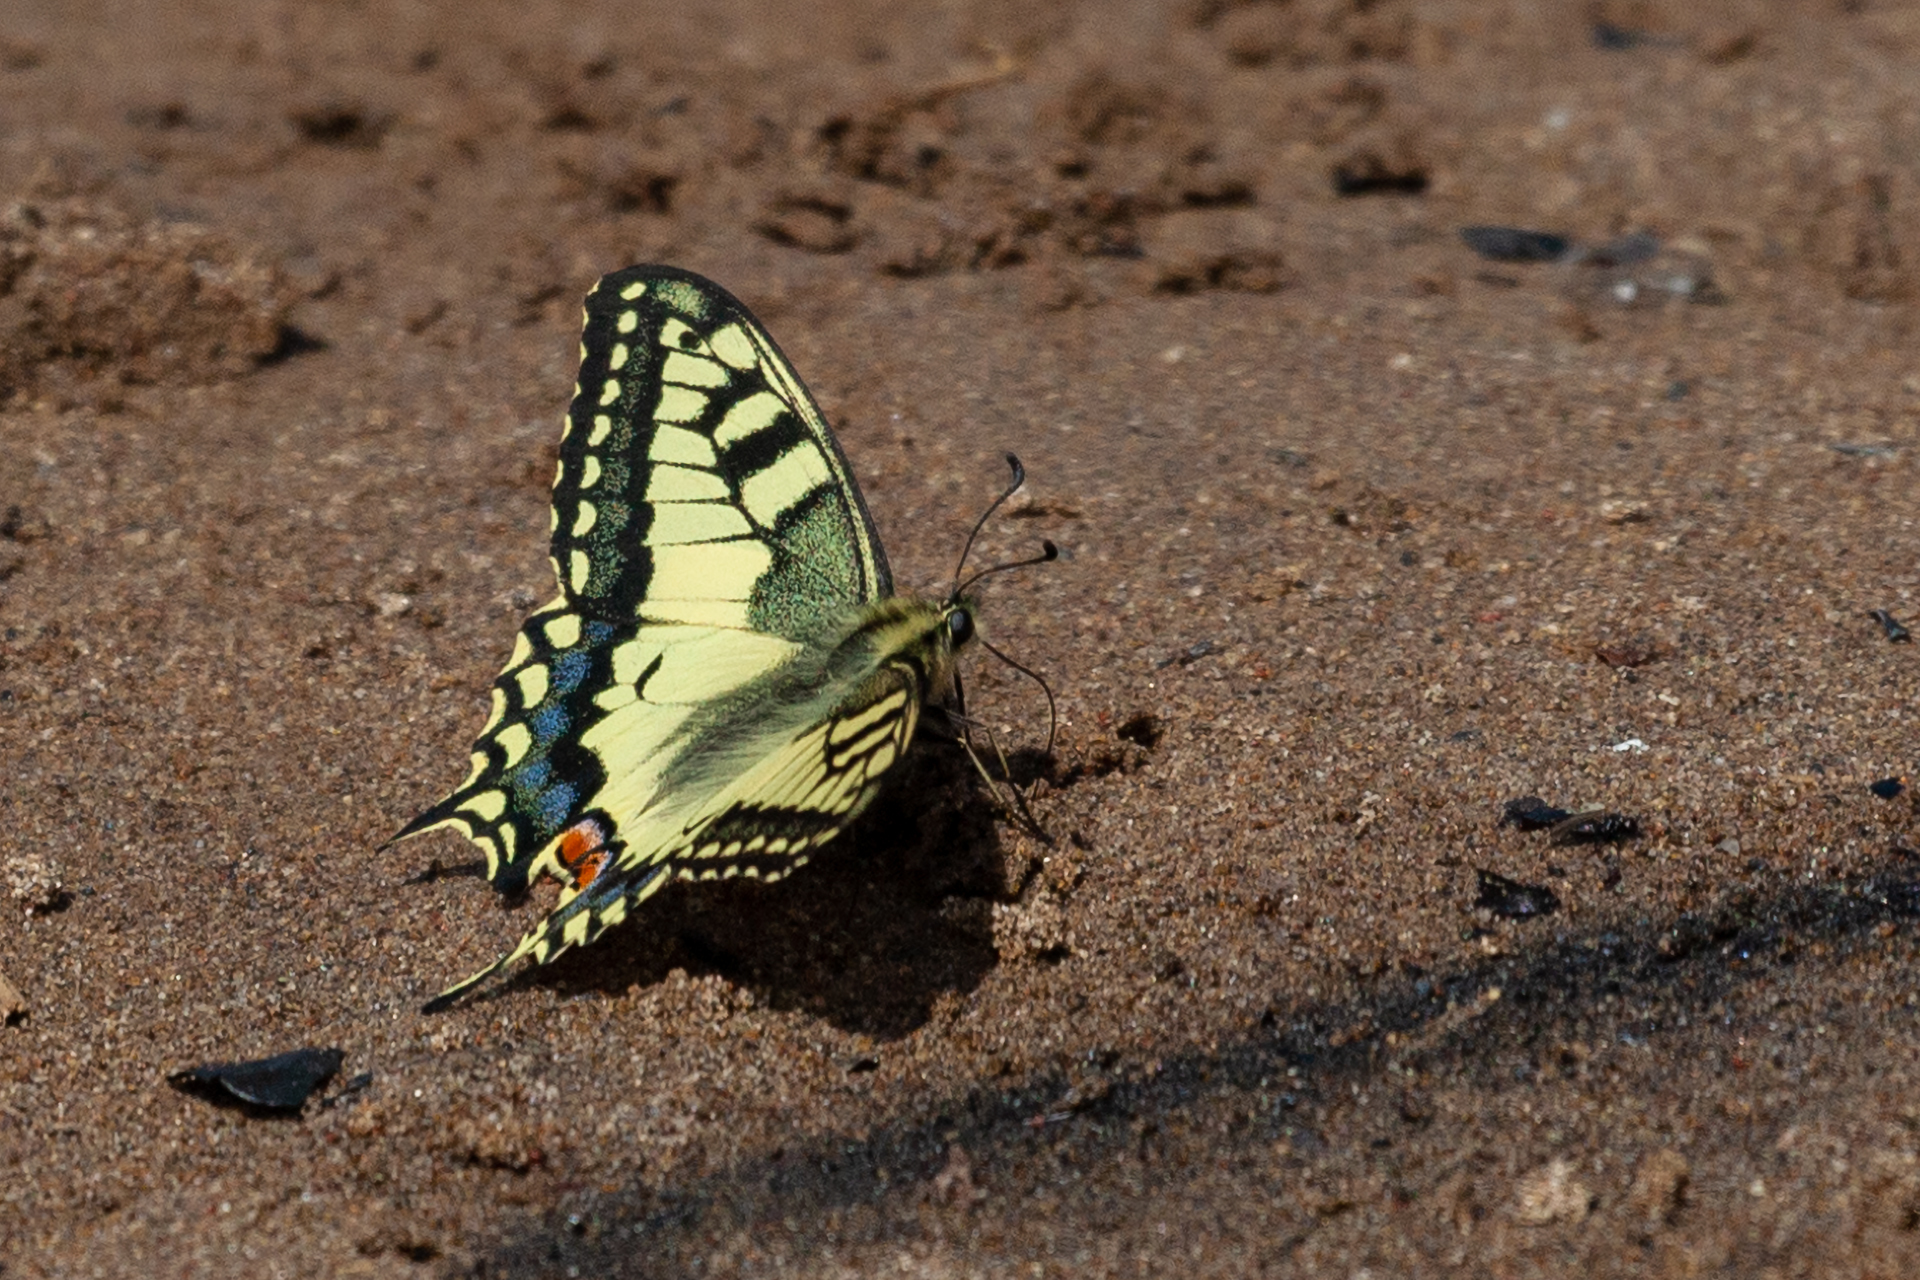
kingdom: Animalia
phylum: Arthropoda
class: Insecta
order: Lepidoptera
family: Papilionidae
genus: Papilio
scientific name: Papilio machaon
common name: Swallowtail
